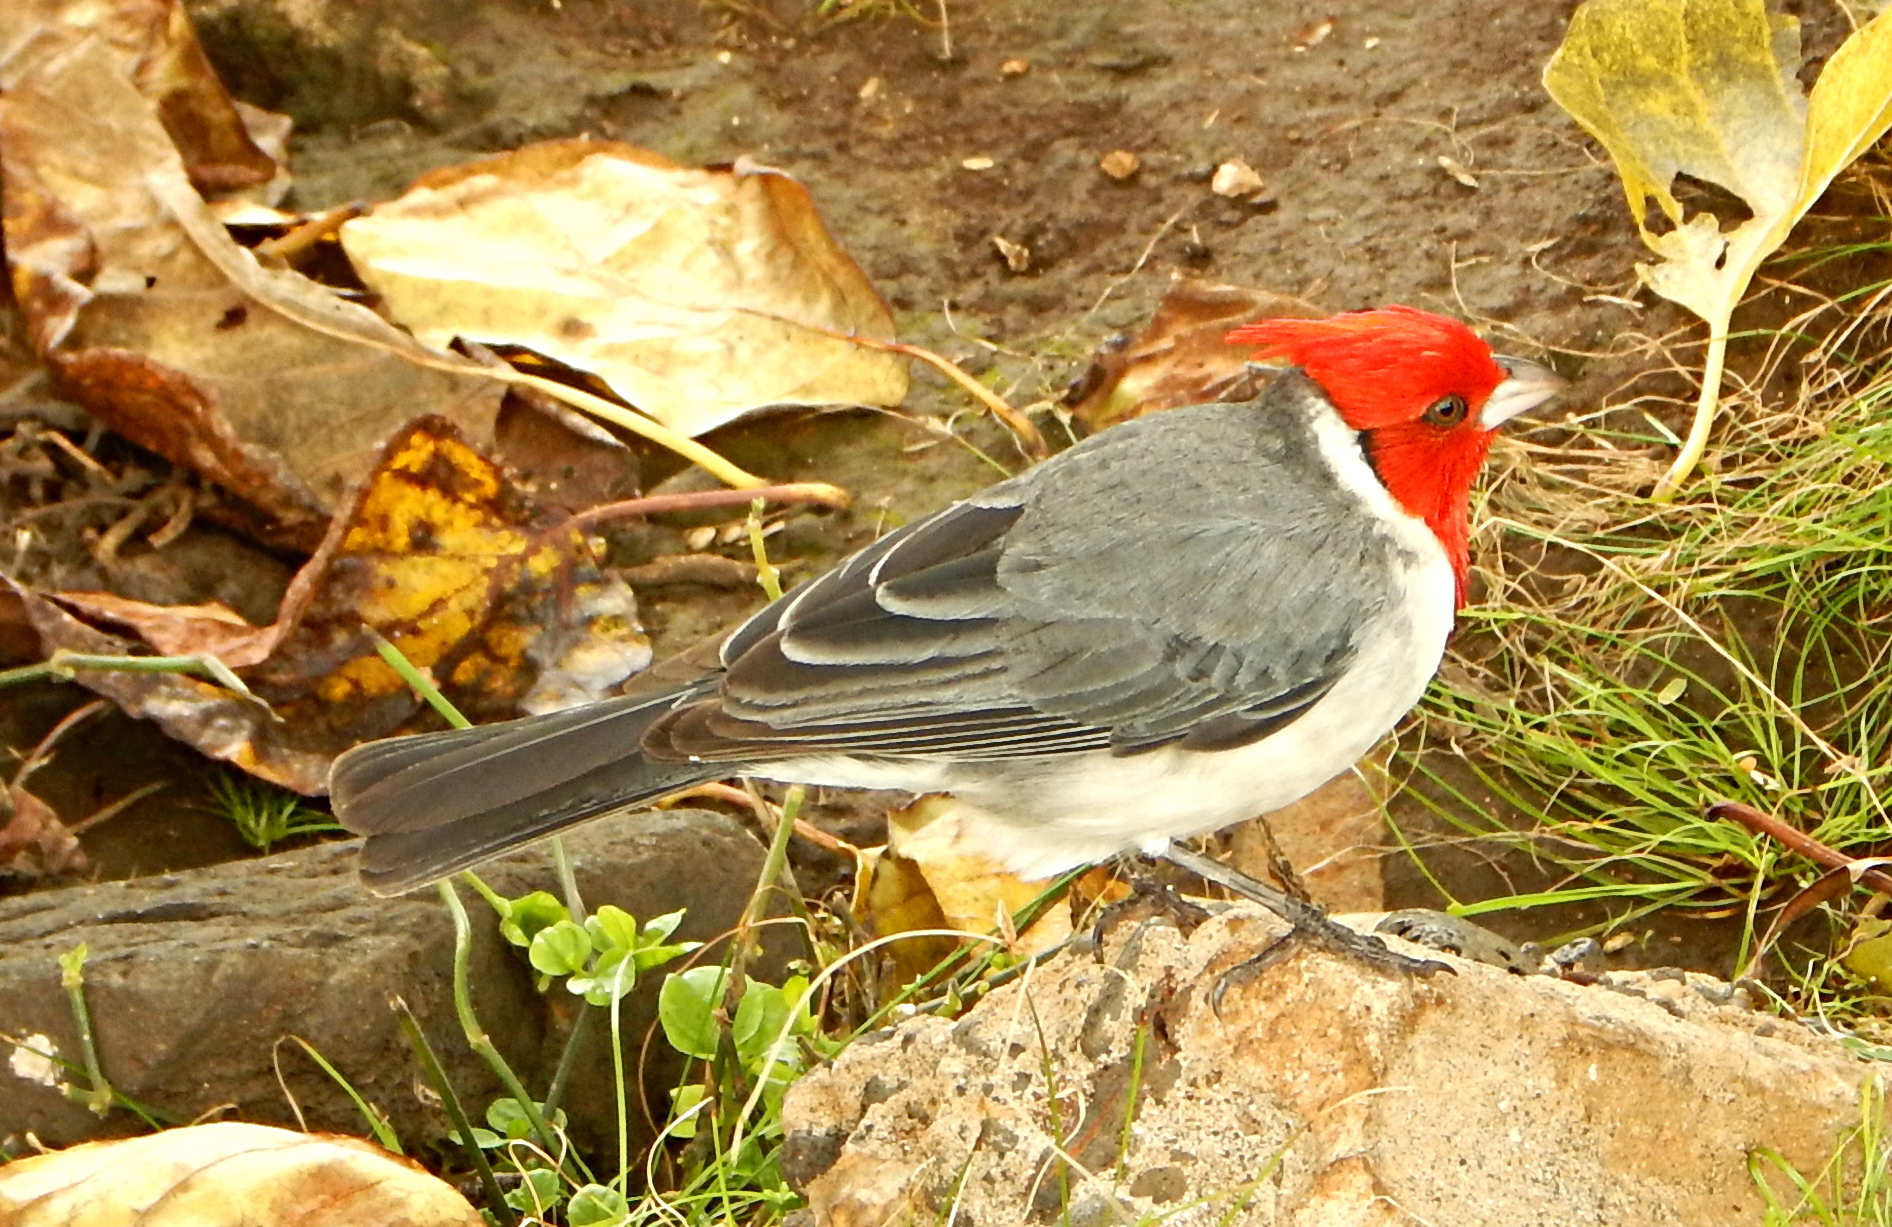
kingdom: Animalia
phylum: Chordata
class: Aves
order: Passeriformes
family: Thraupidae
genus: Paroaria
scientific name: Paroaria coronata
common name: Red-crested cardinal
